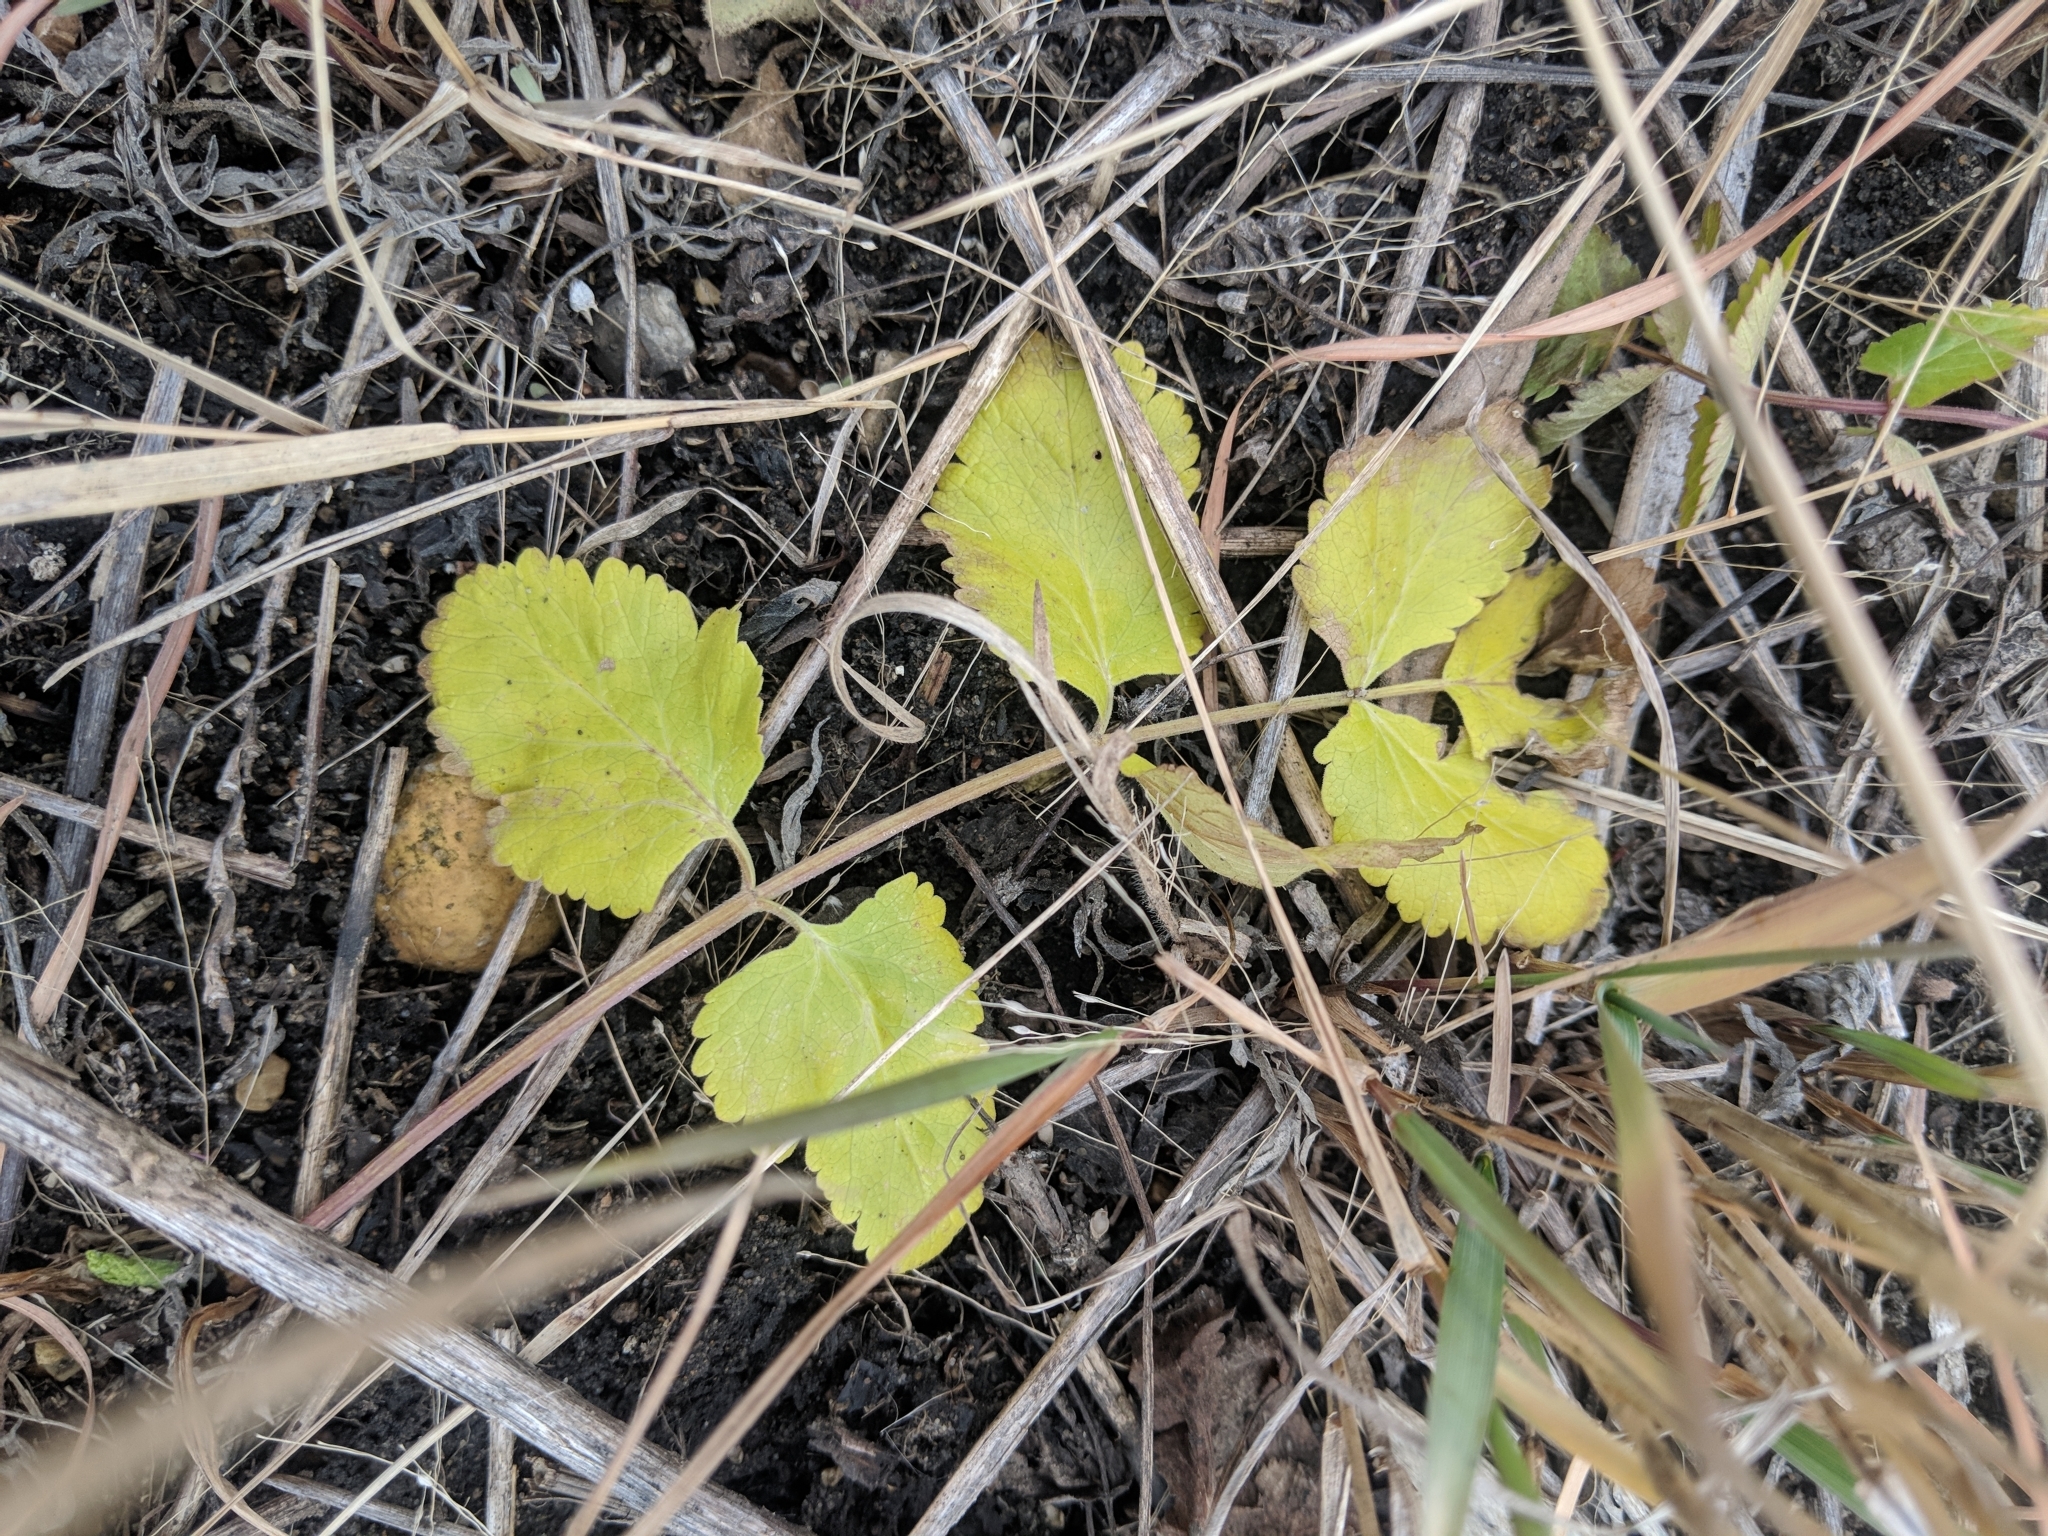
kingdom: Plantae
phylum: Tracheophyta
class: Magnoliopsida
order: Apiales
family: Apiaceae
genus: Pastinaca
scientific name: Pastinaca sativa
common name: Wild parsnip
